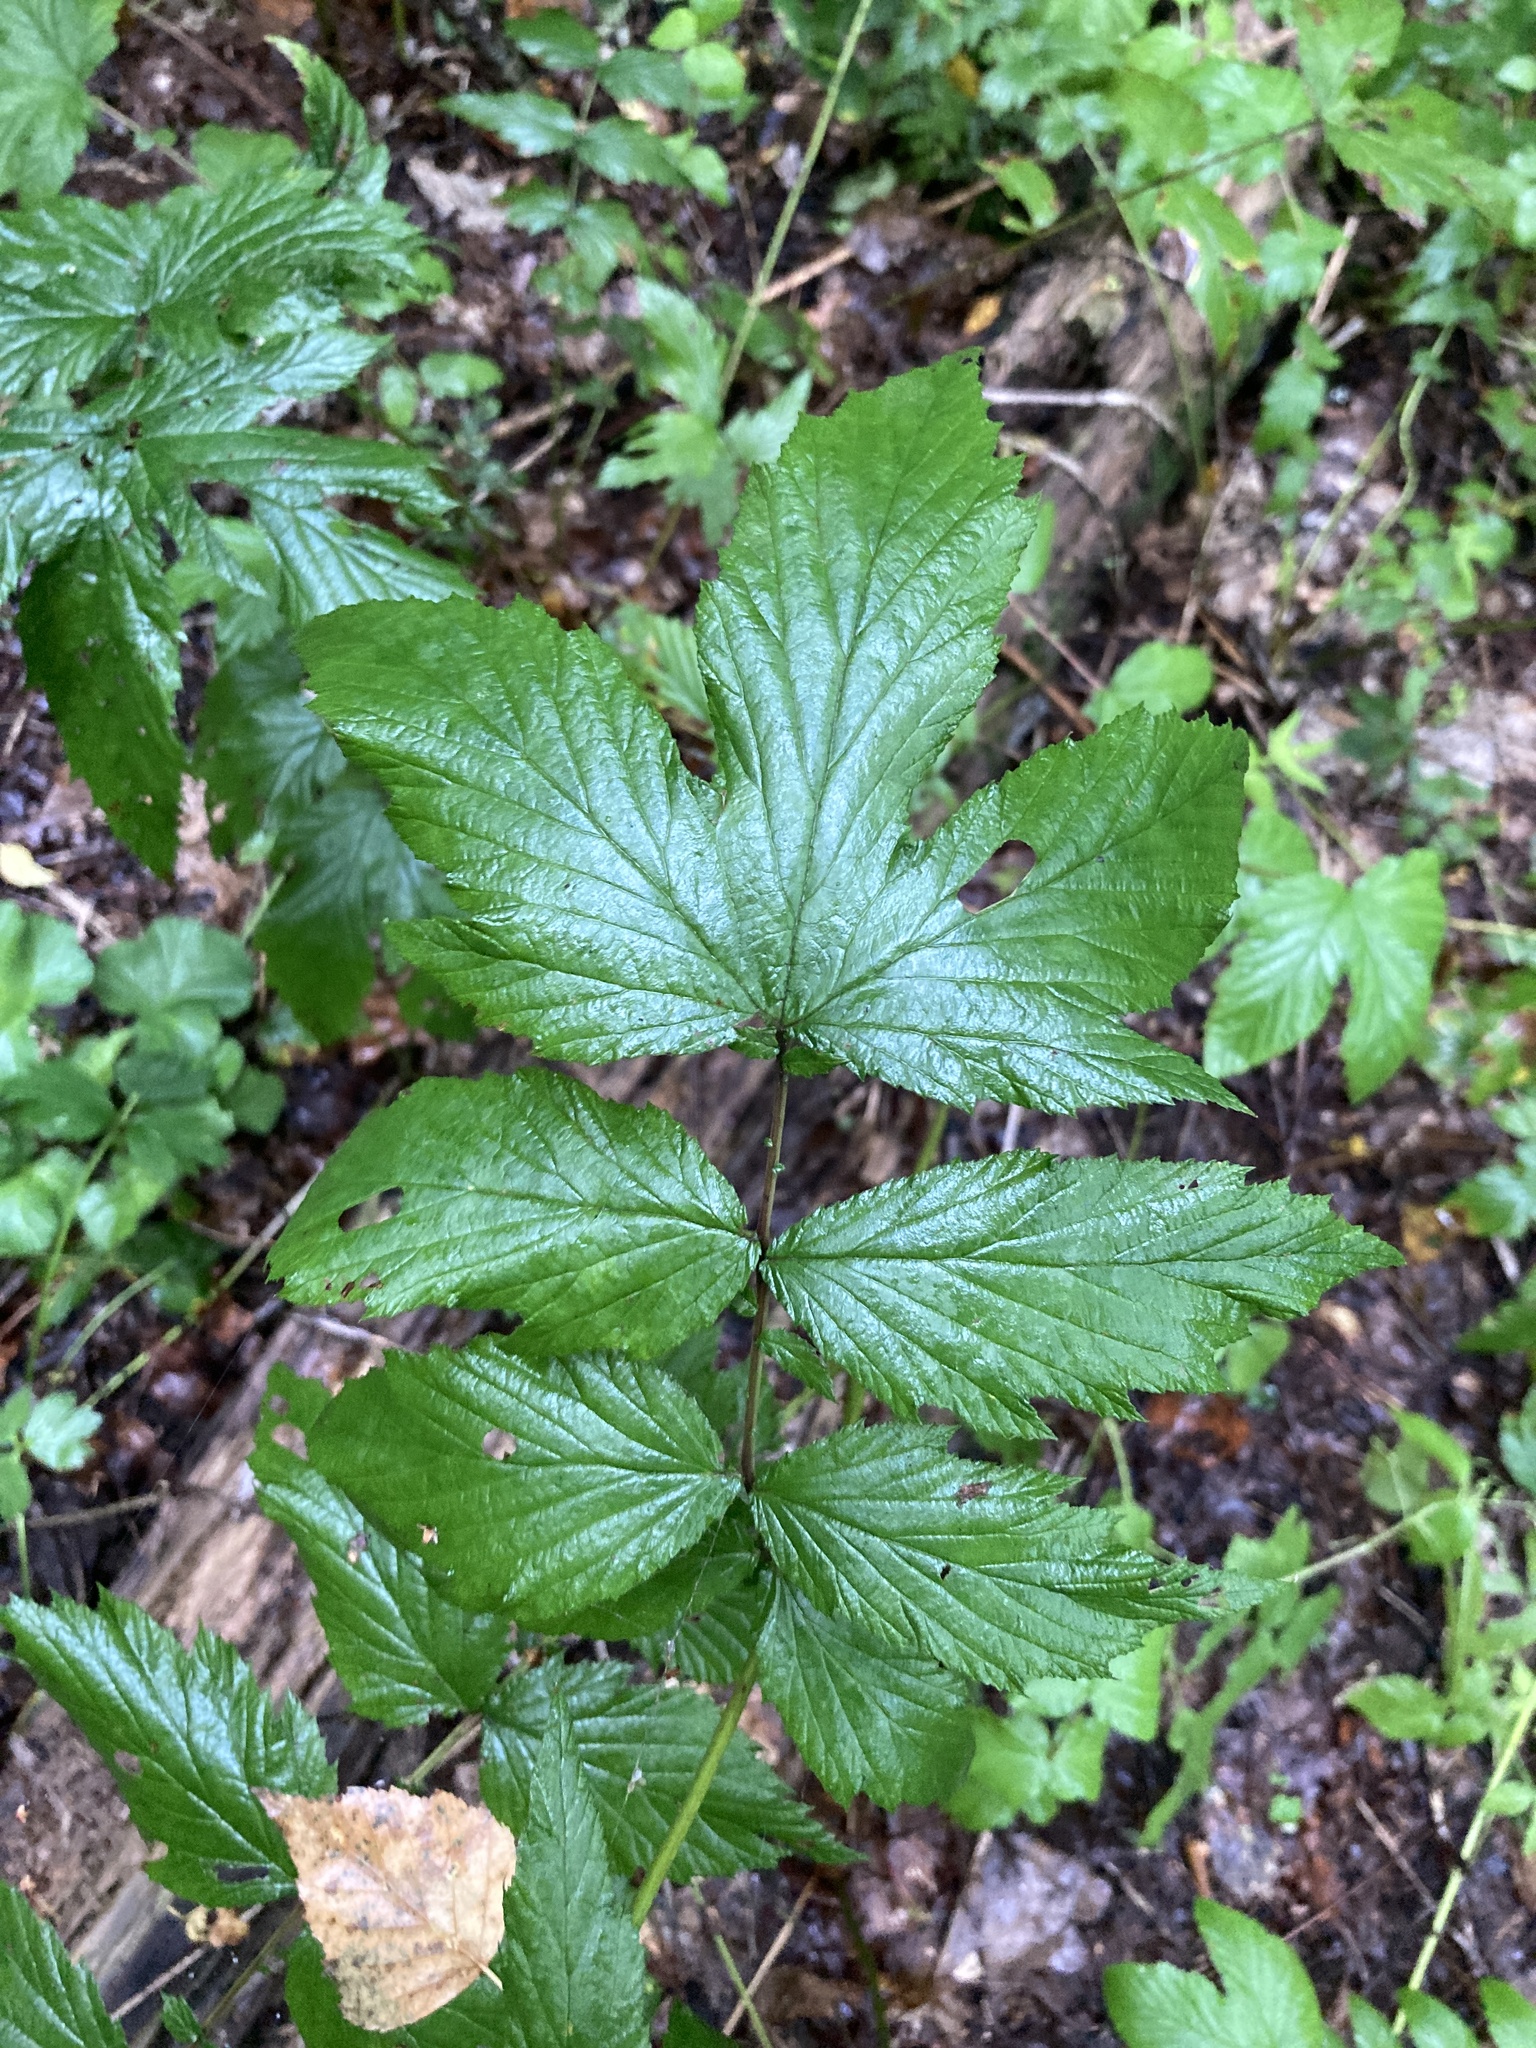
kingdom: Plantae
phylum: Tracheophyta
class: Magnoliopsida
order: Rosales
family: Rosaceae
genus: Filipendula
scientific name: Filipendula ulmaria
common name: Meadowsweet
